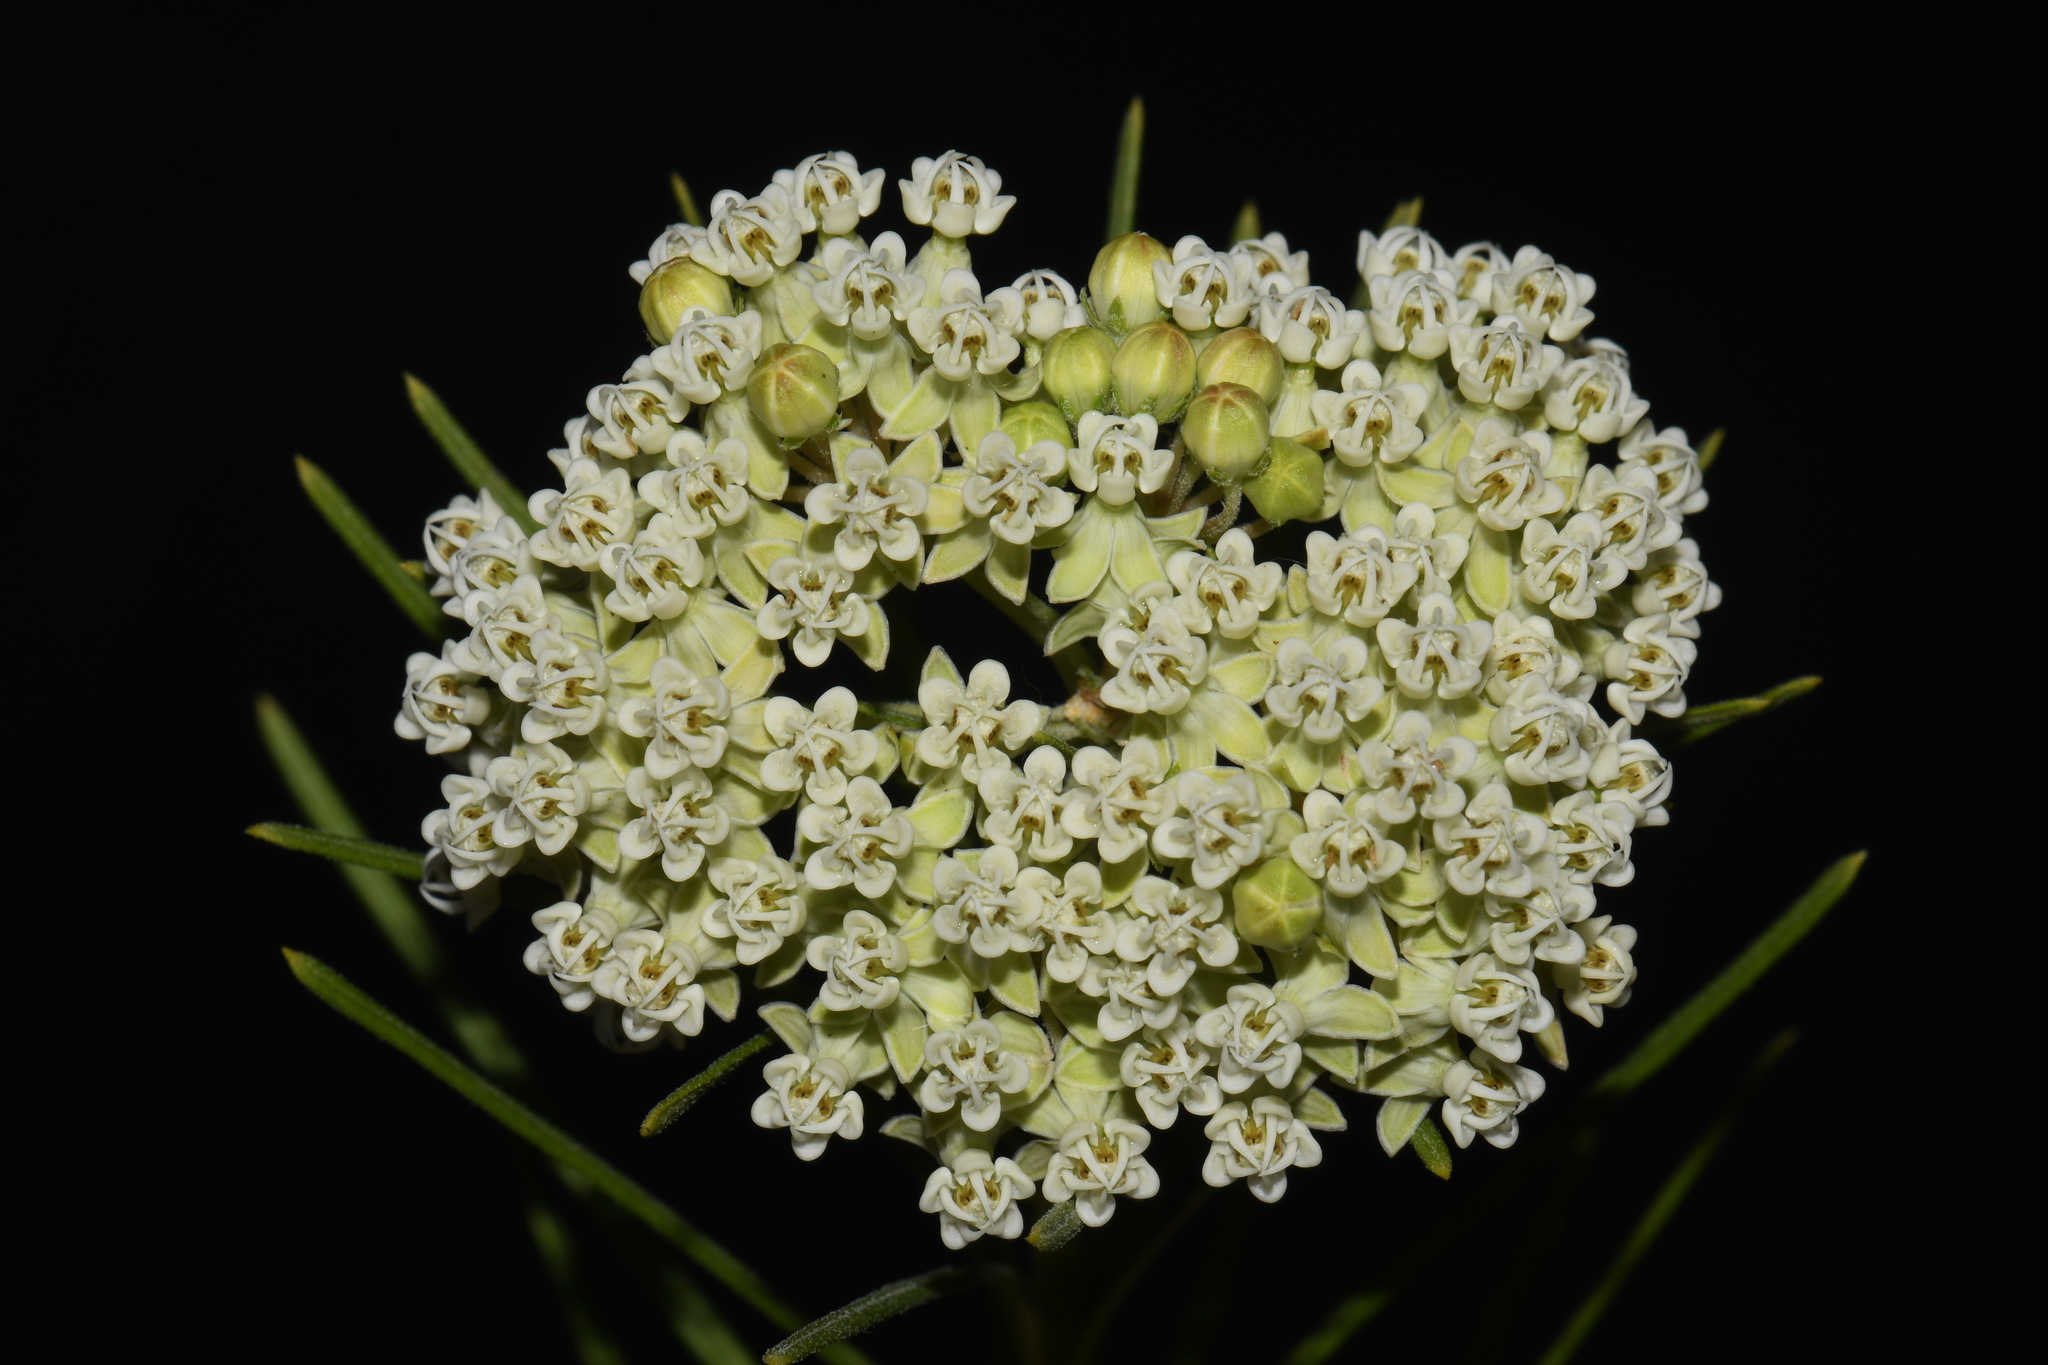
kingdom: Plantae
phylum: Tracheophyta
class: Magnoliopsida
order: Gentianales
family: Apocynaceae
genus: Asclepias
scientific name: Asclepias verticillata
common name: Eastern whorled milkweed
